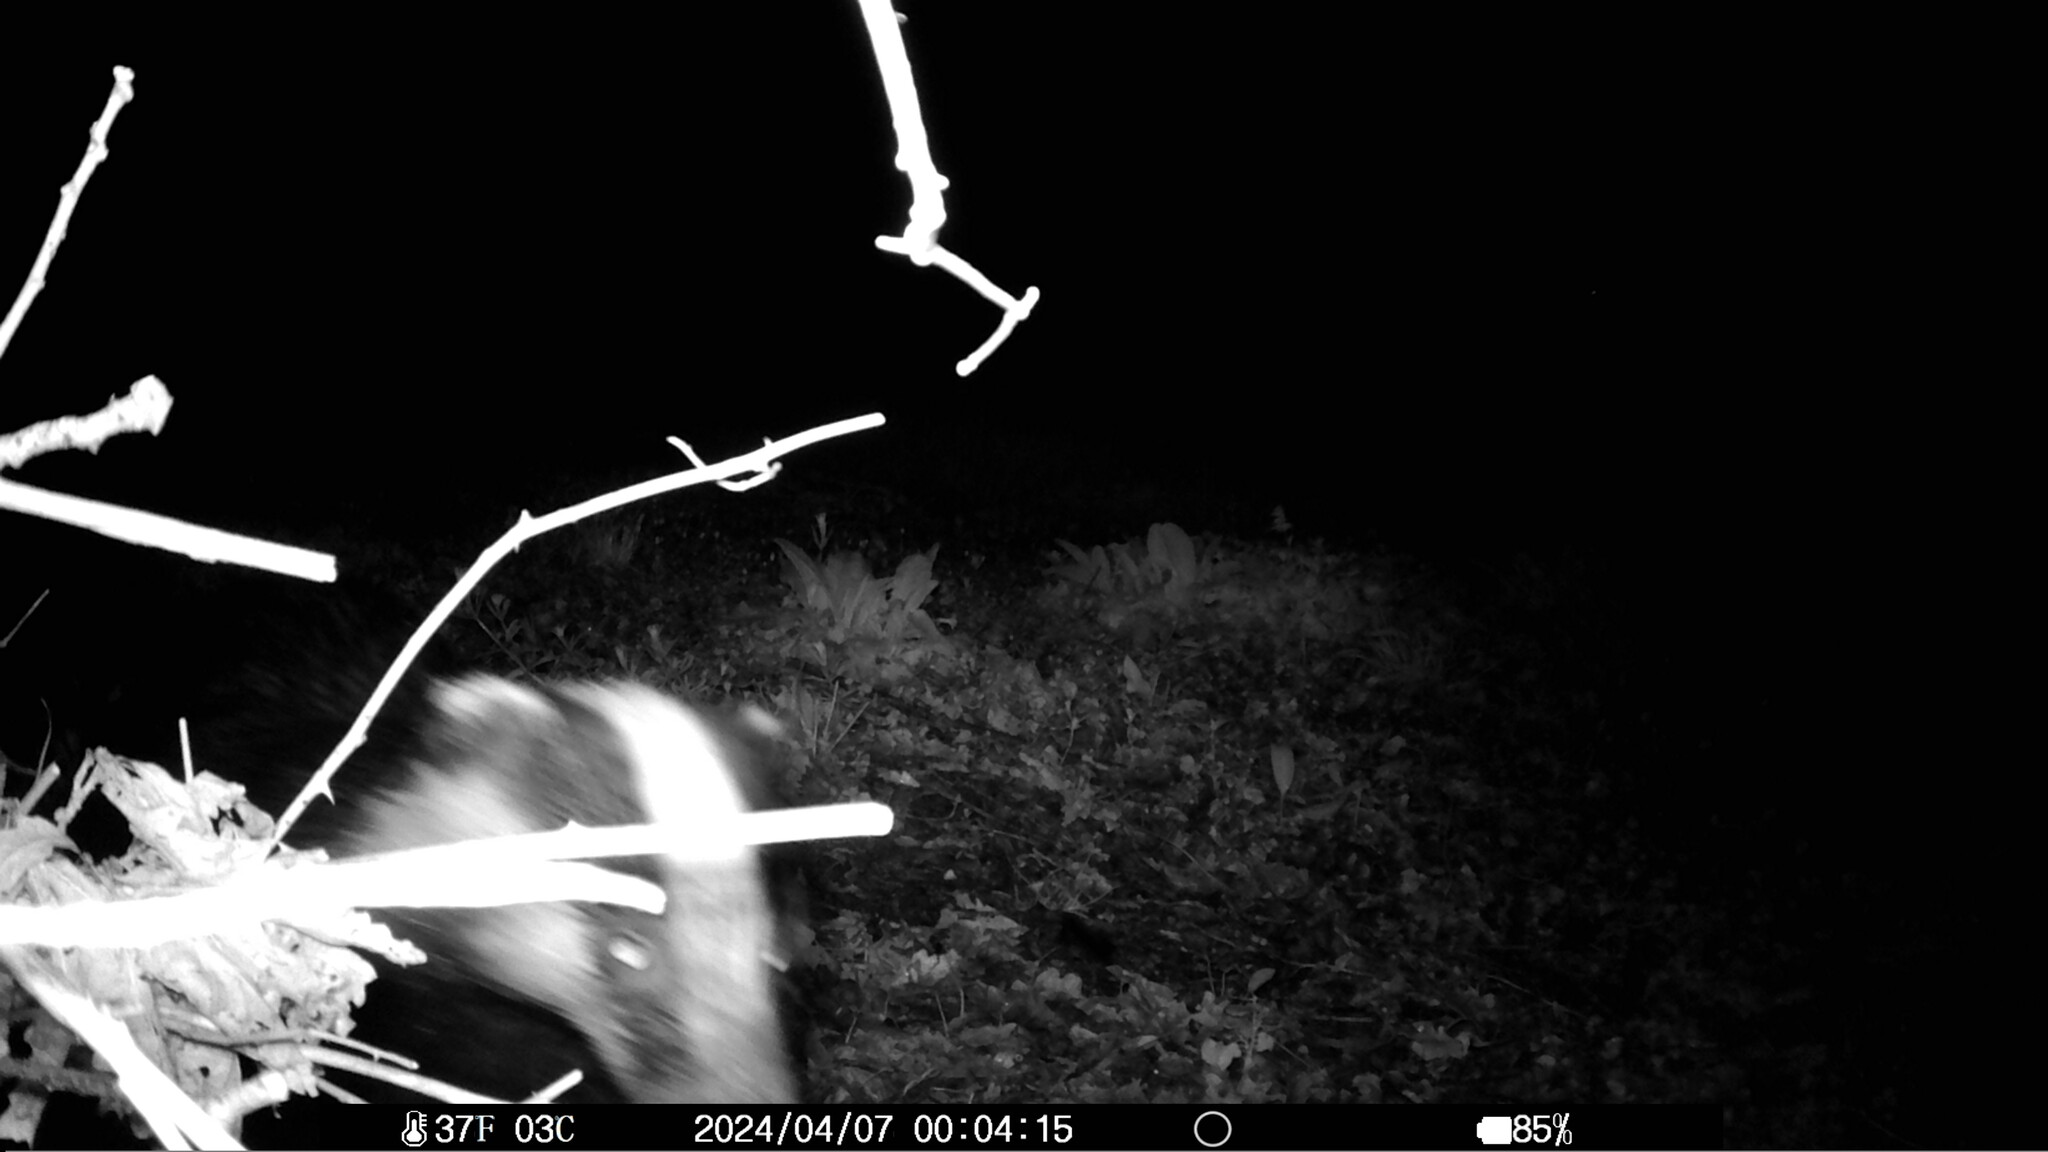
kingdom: Animalia
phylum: Chordata
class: Mammalia
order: Carnivora
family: Mustelidae
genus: Meles
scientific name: Meles meles
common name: Eurasian badger
